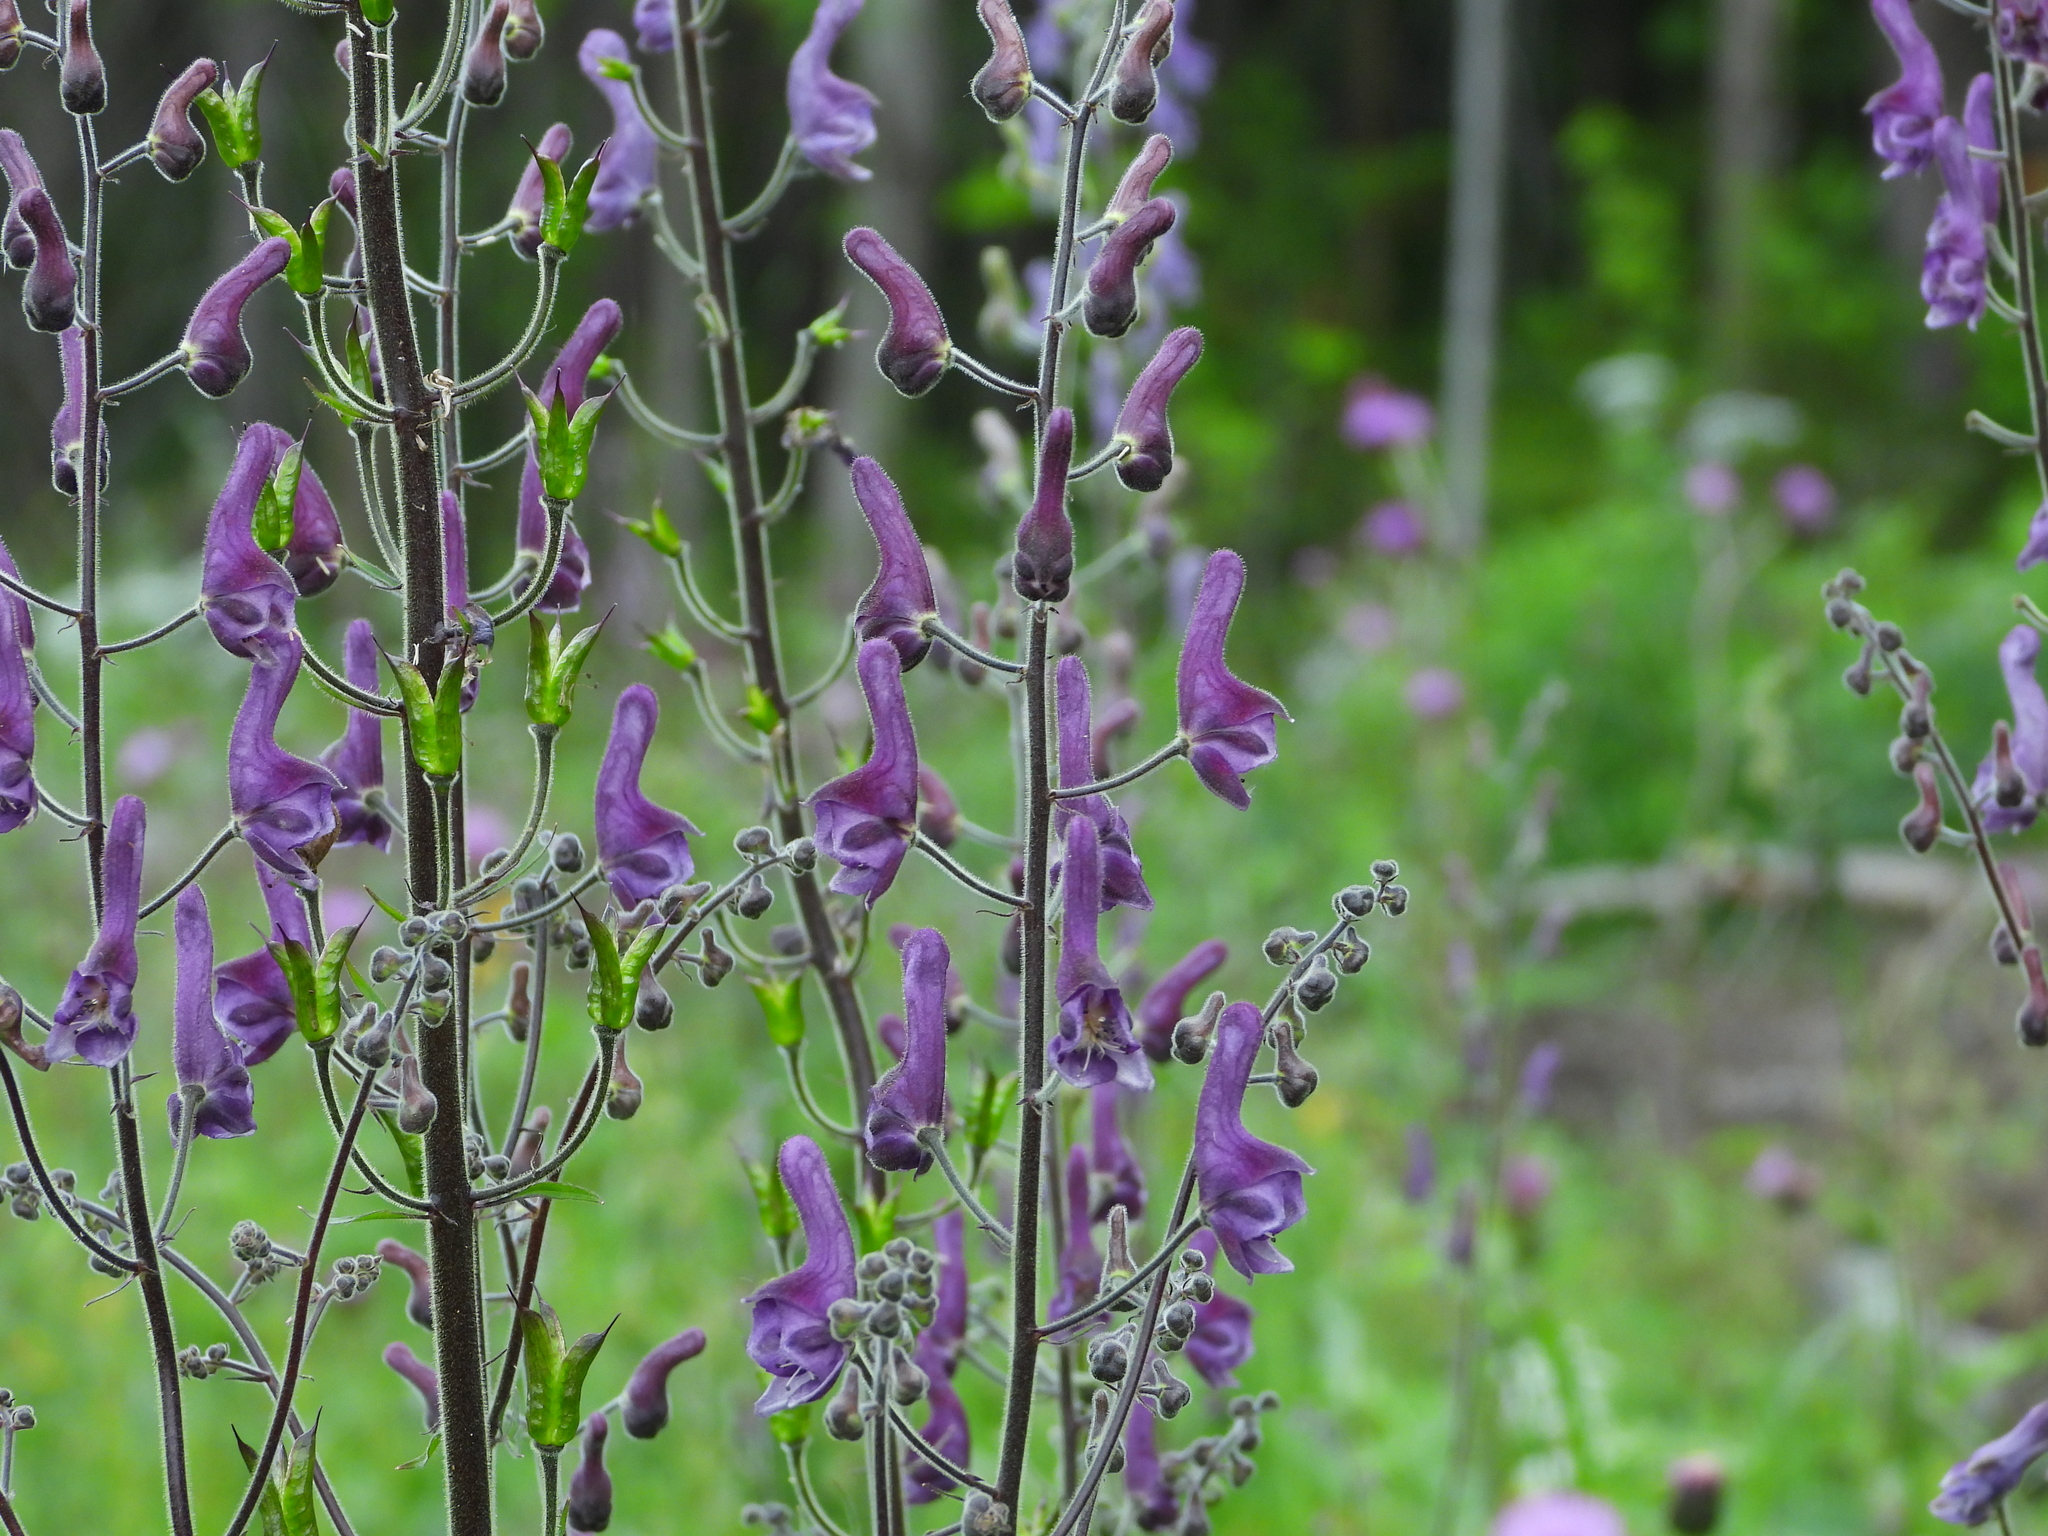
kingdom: Plantae
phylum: Tracheophyta
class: Magnoliopsida
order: Ranunculales
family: Ranunculaceae
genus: Aconitum
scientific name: Aconitum septentrionale
